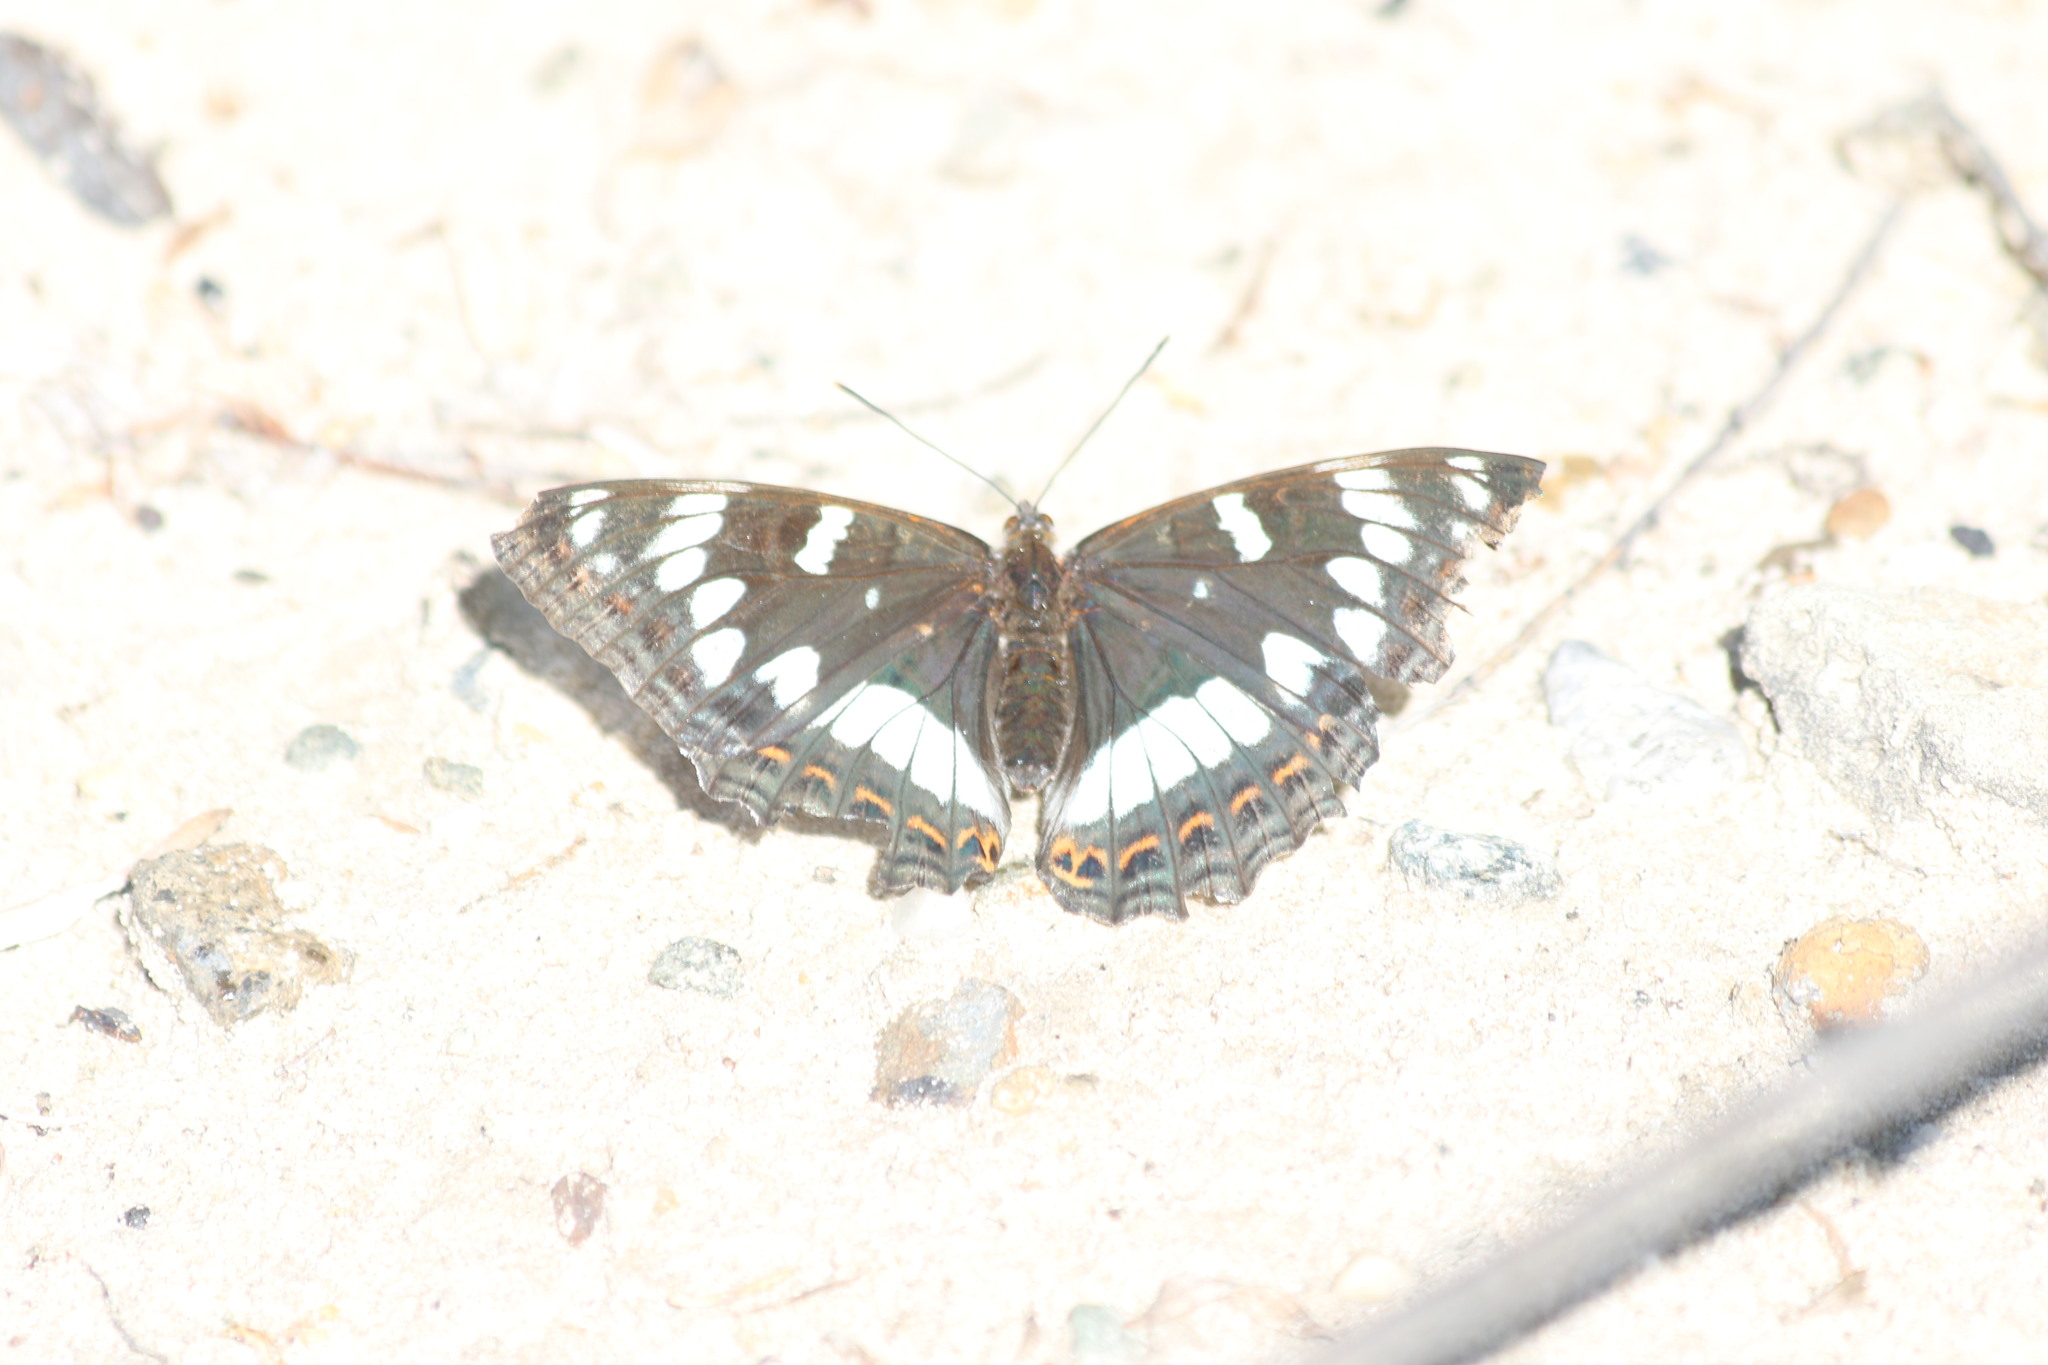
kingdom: Animalia
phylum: Arthropoda
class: Insecta
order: Lepidoptera
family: Nymphalidae
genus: Limenitis
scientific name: Limenitis populi
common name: Poplar admiral
